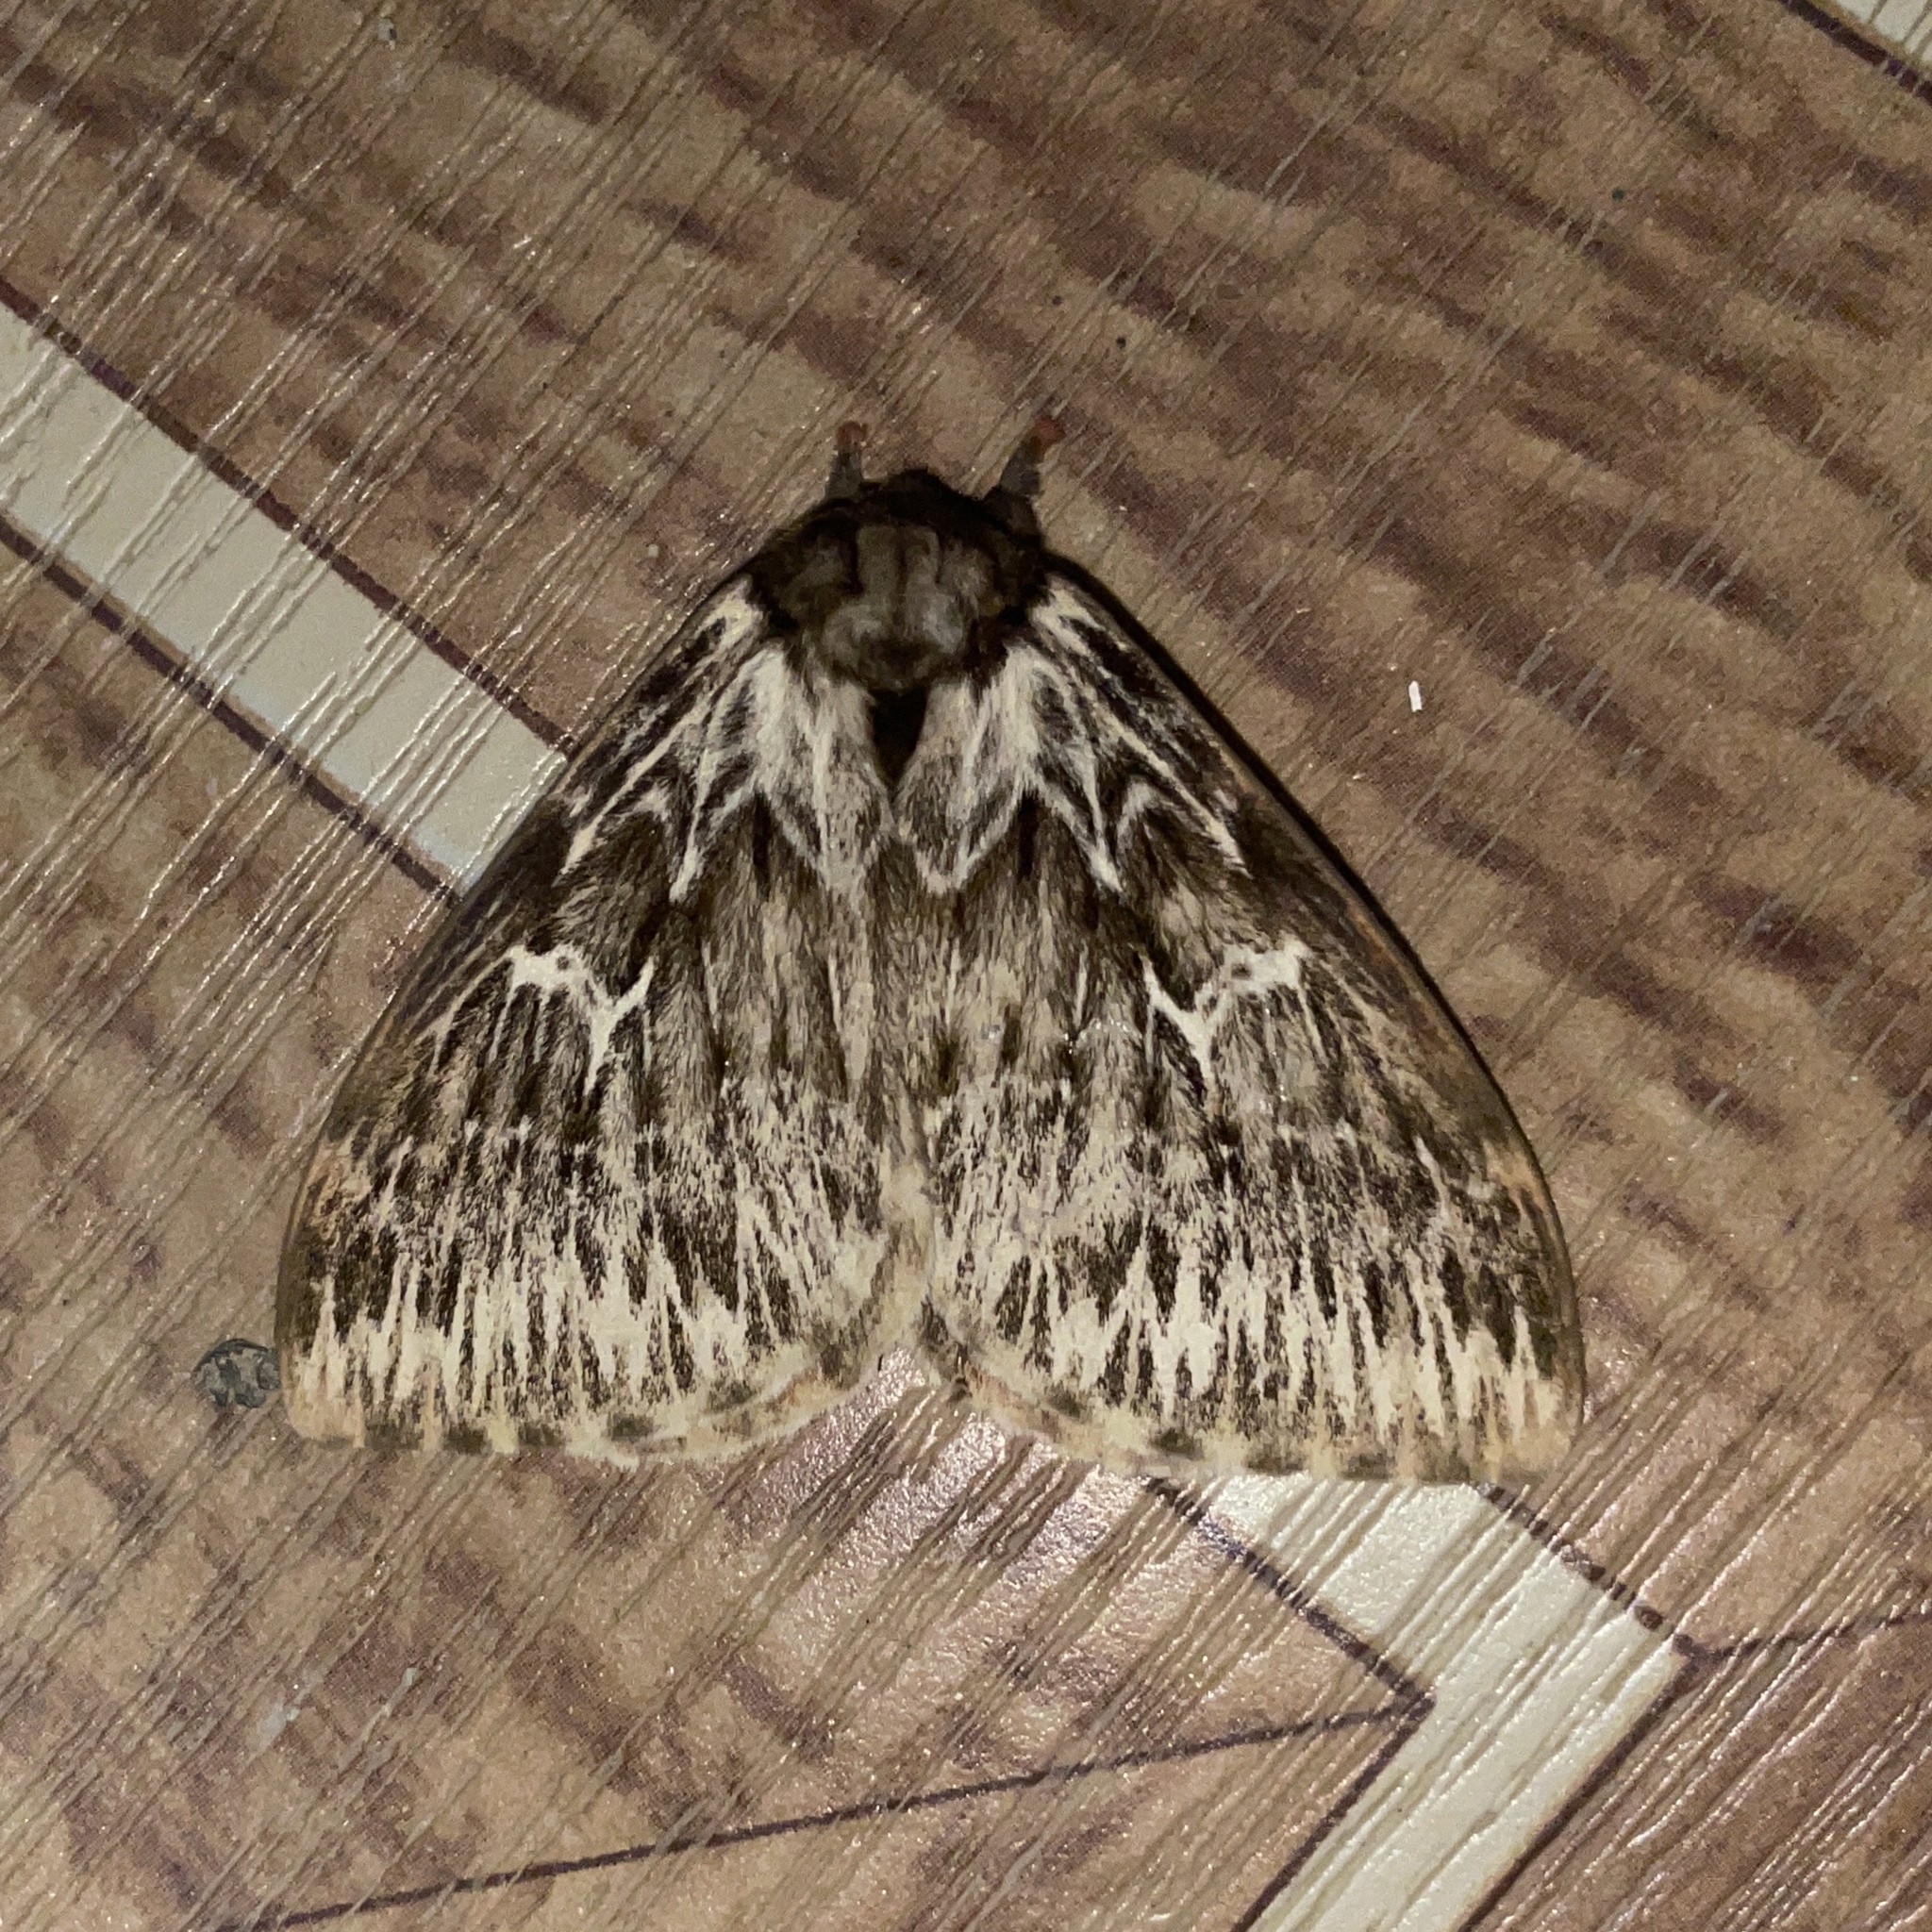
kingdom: Animalia
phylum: Arthropoda
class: Insecta
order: Lepidoptera
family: Saturniidae
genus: Dirphia
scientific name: Dirphia radiata
